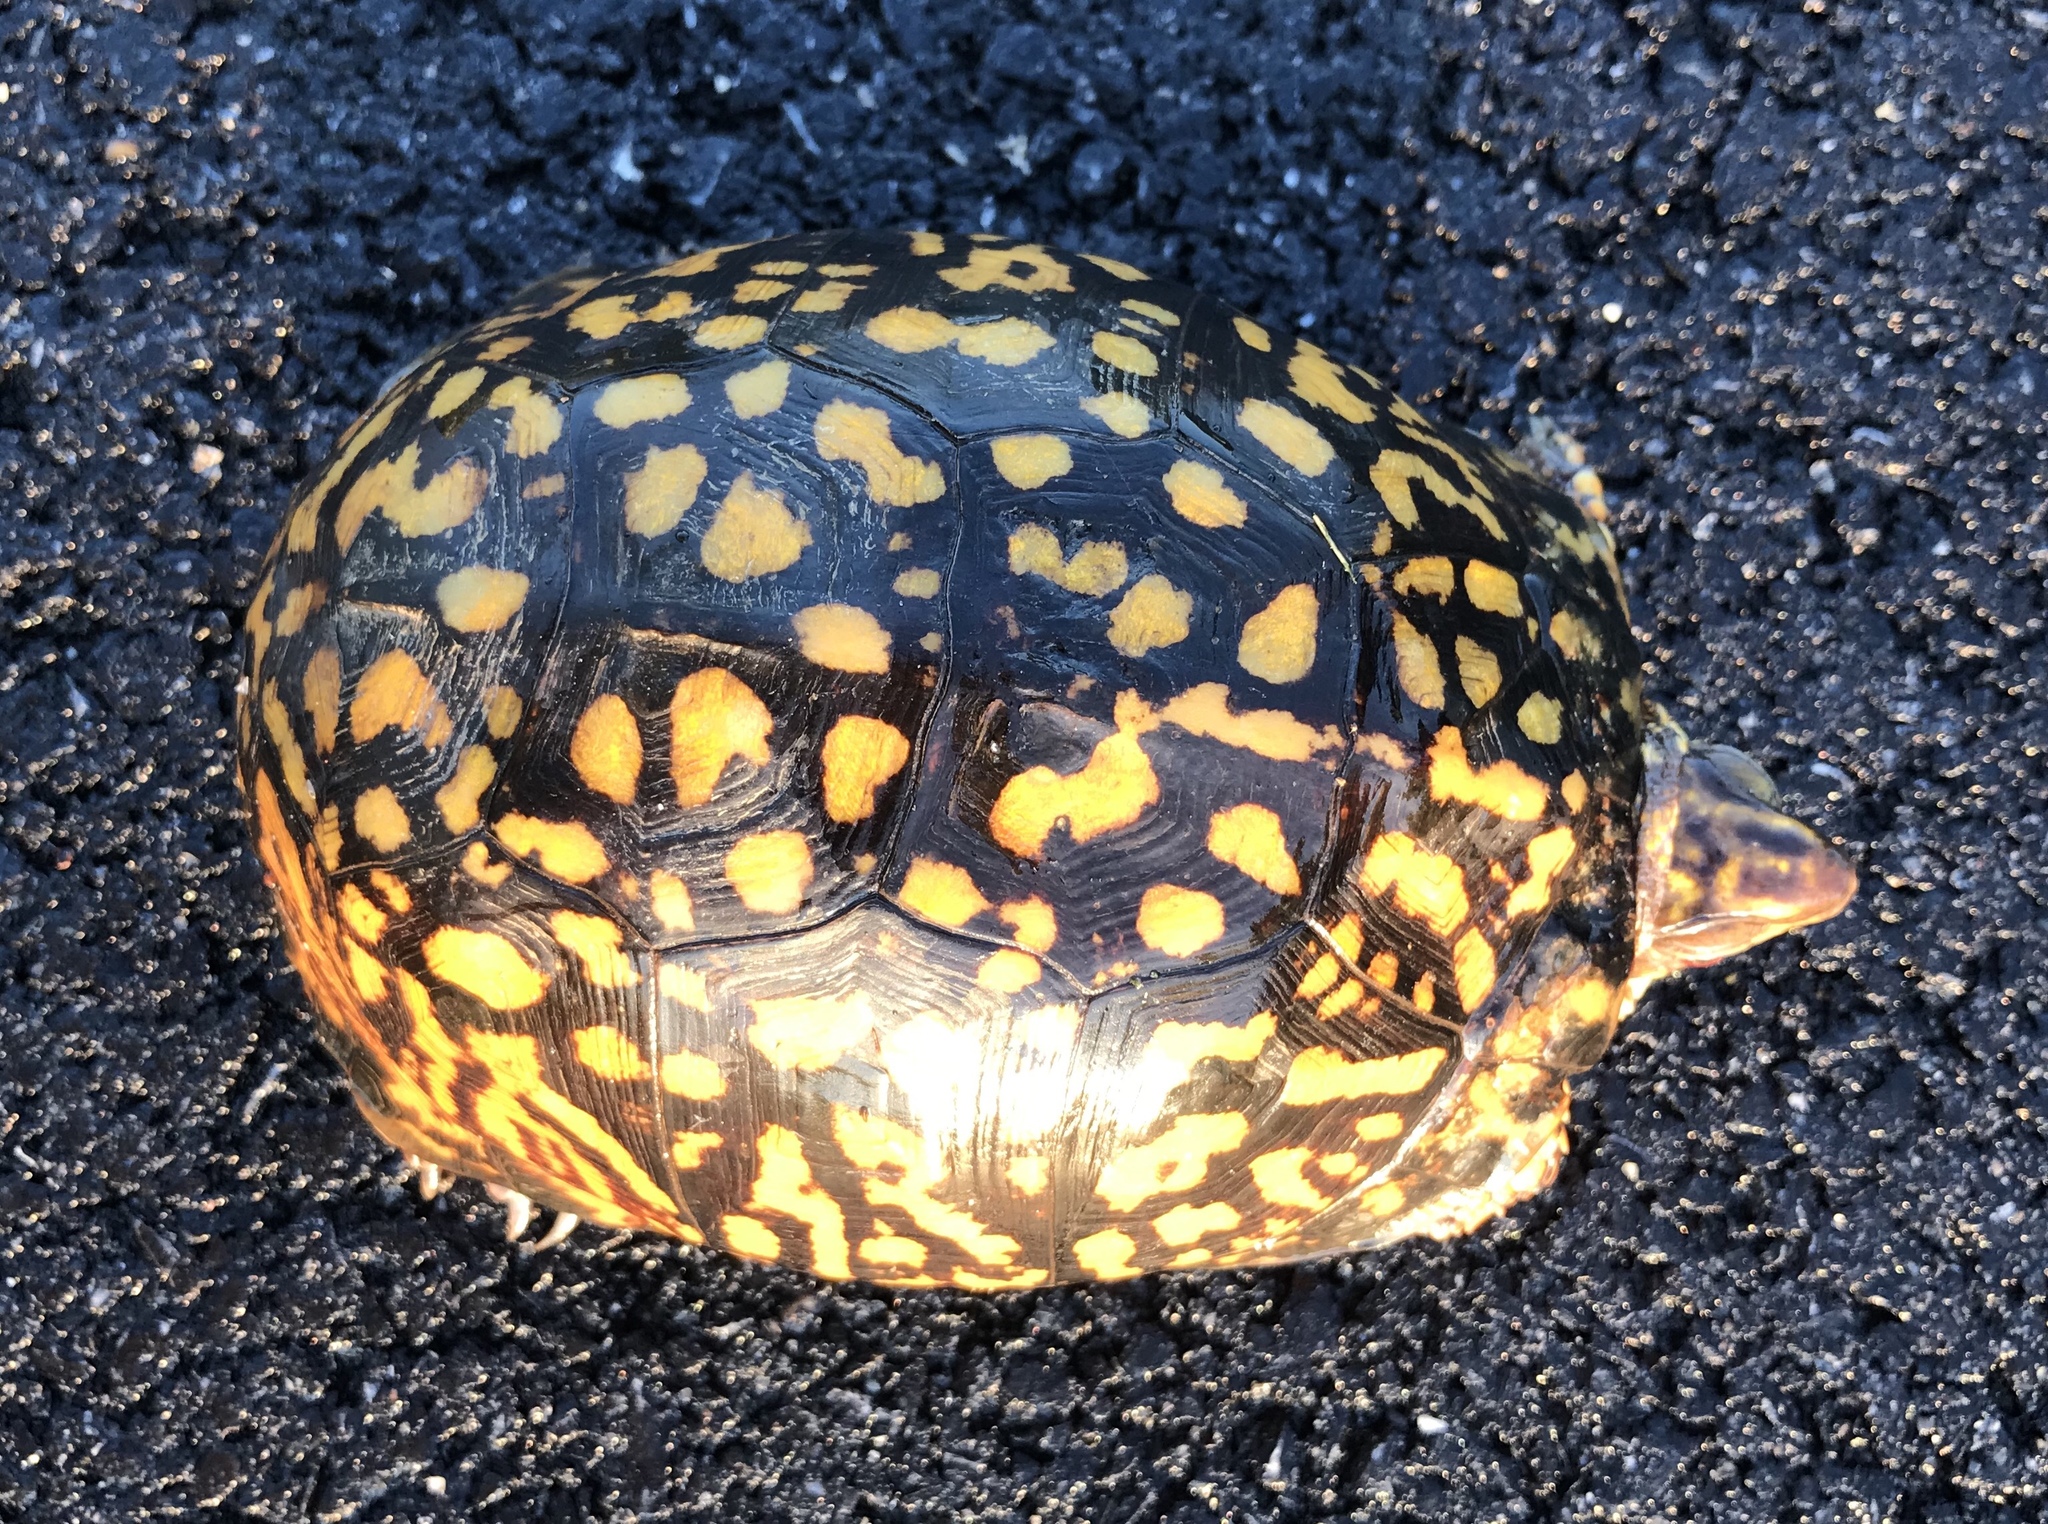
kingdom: Animalia
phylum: Chordata
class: Testudines
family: Emydidae
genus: Terrapene
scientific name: Terrapene carolina
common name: Common box turtle
